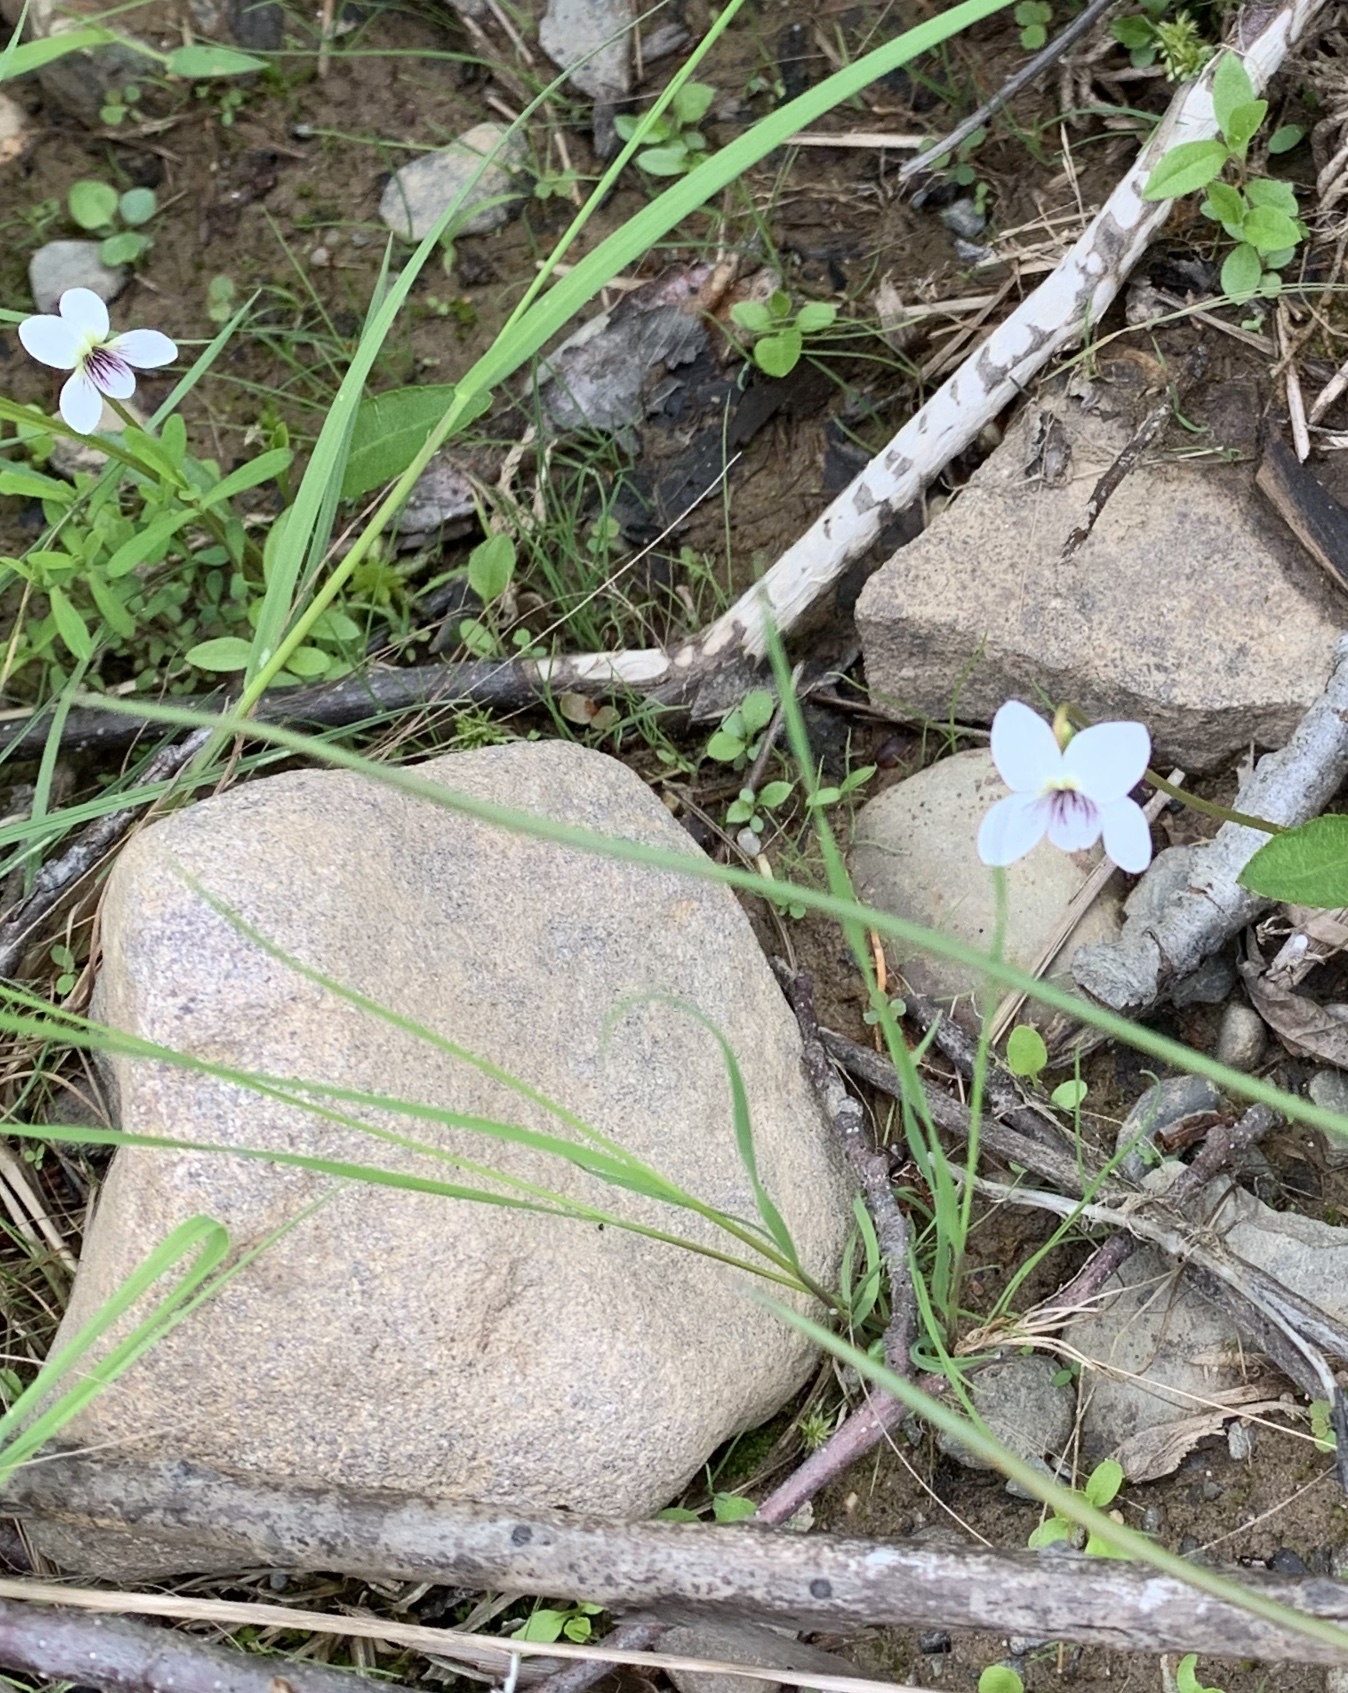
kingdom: Plantae
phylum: Tracheophyta
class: Magnoliopsida
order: Malpighiales
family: Violaceae
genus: Viola
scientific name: Viola lanceolata
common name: Bog white violet
